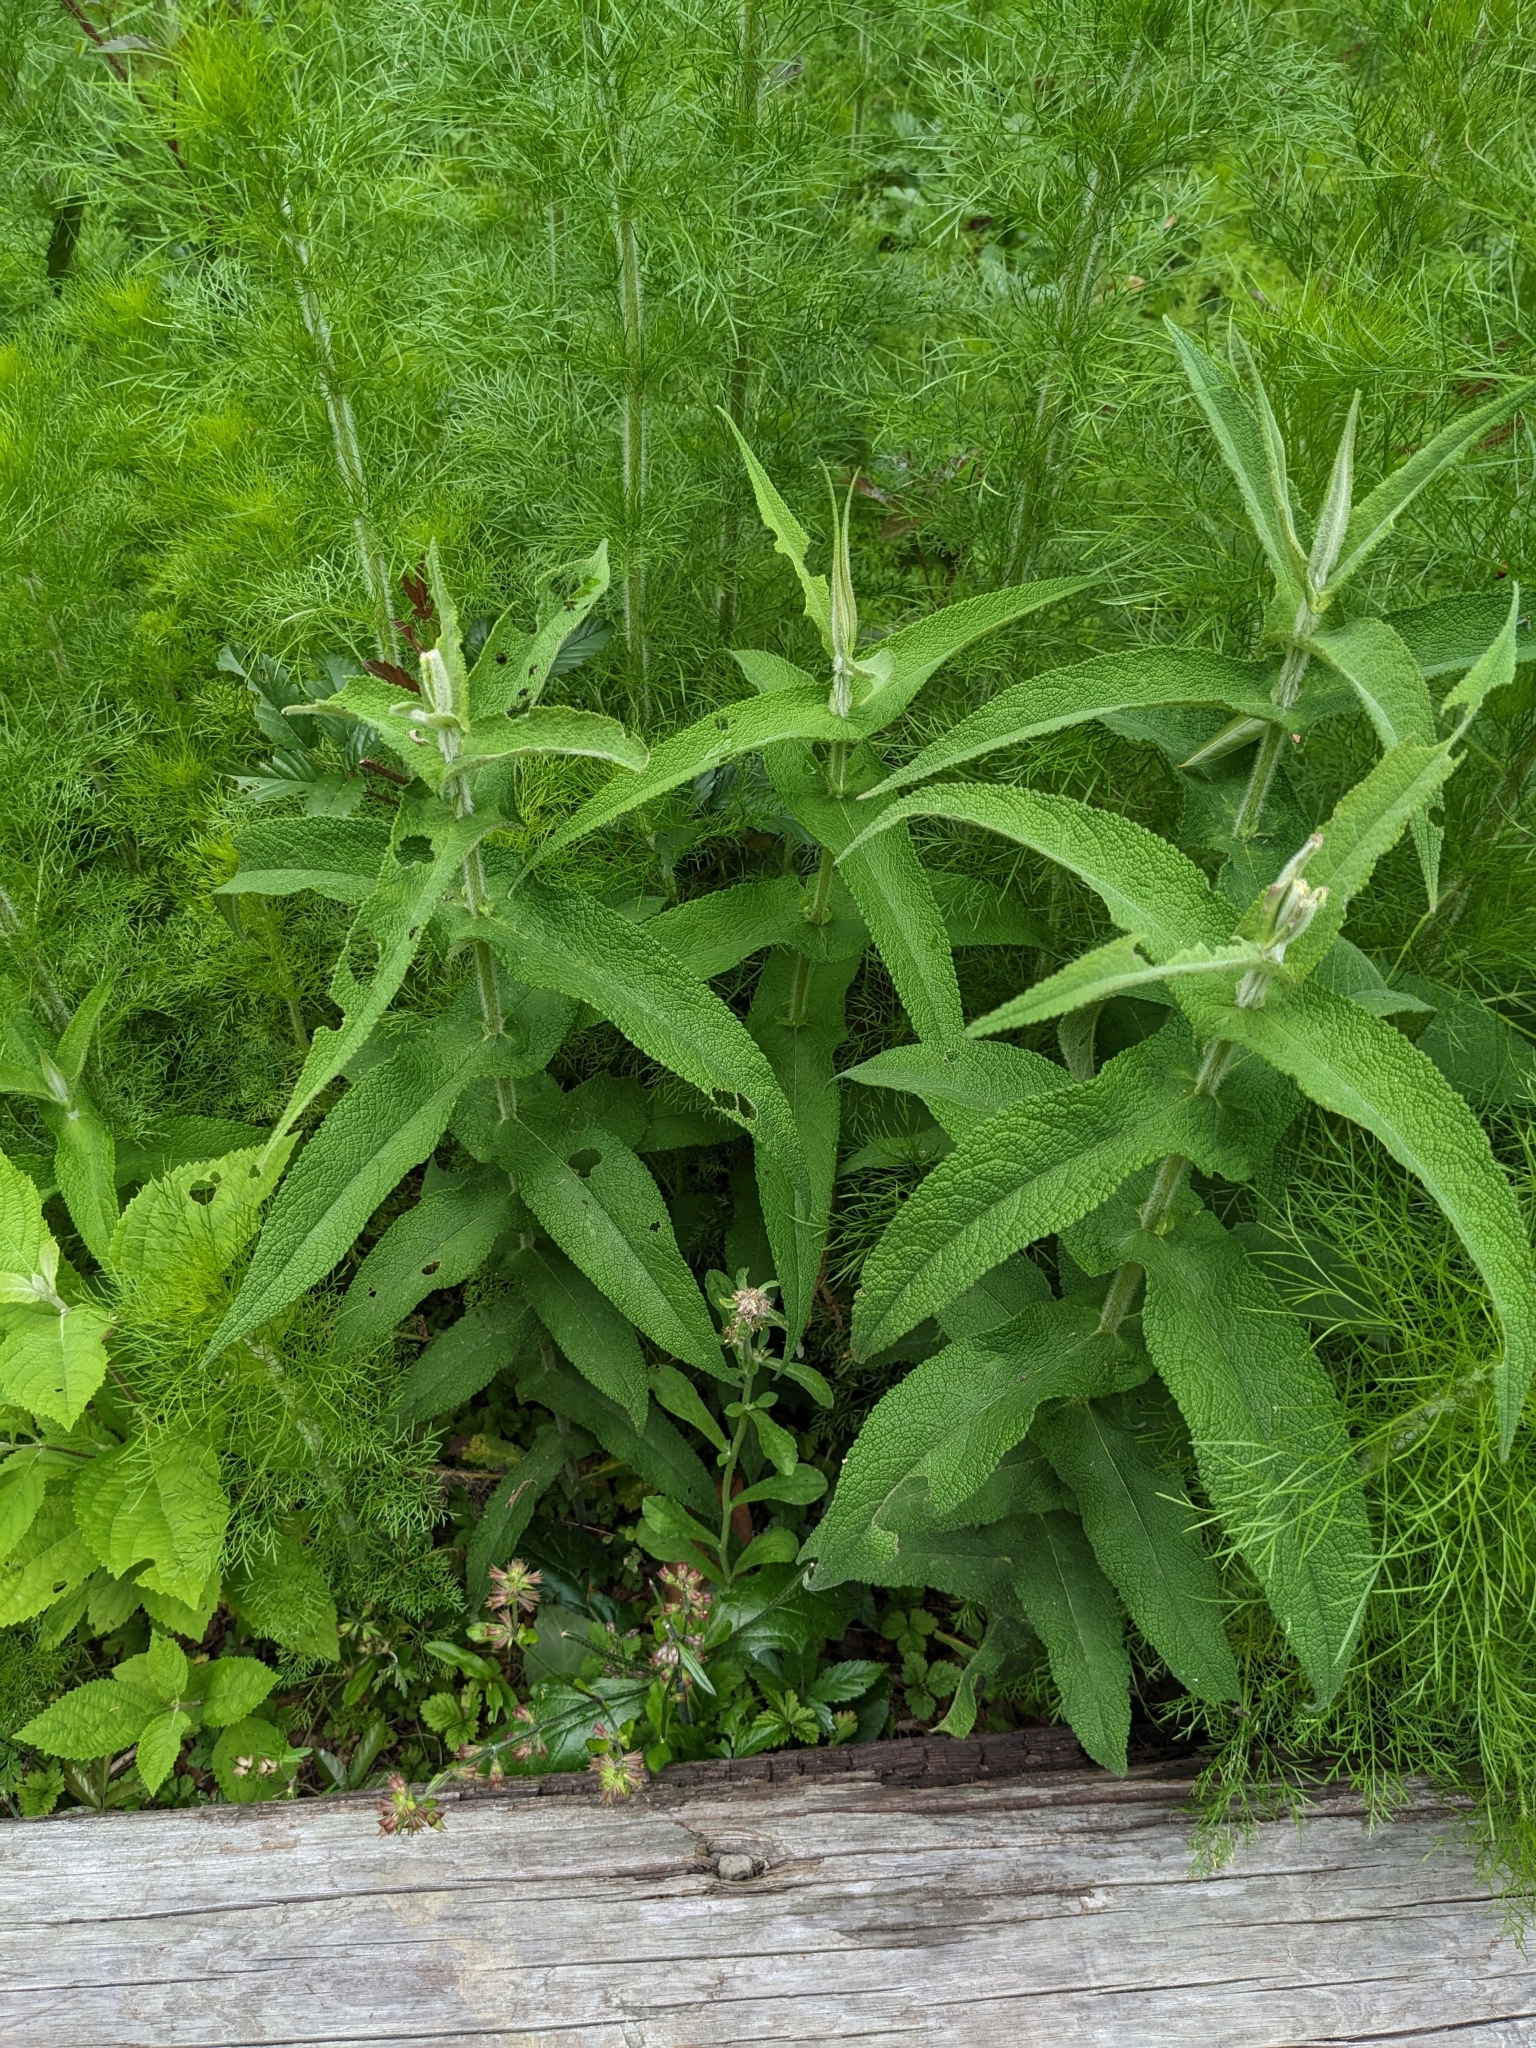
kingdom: Plantae
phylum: Tracheophyta
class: Magnoliopsida
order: Asterales
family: Asteraceae
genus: Eupatorium
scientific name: Eupatorium perfoliatum
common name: Boneset
